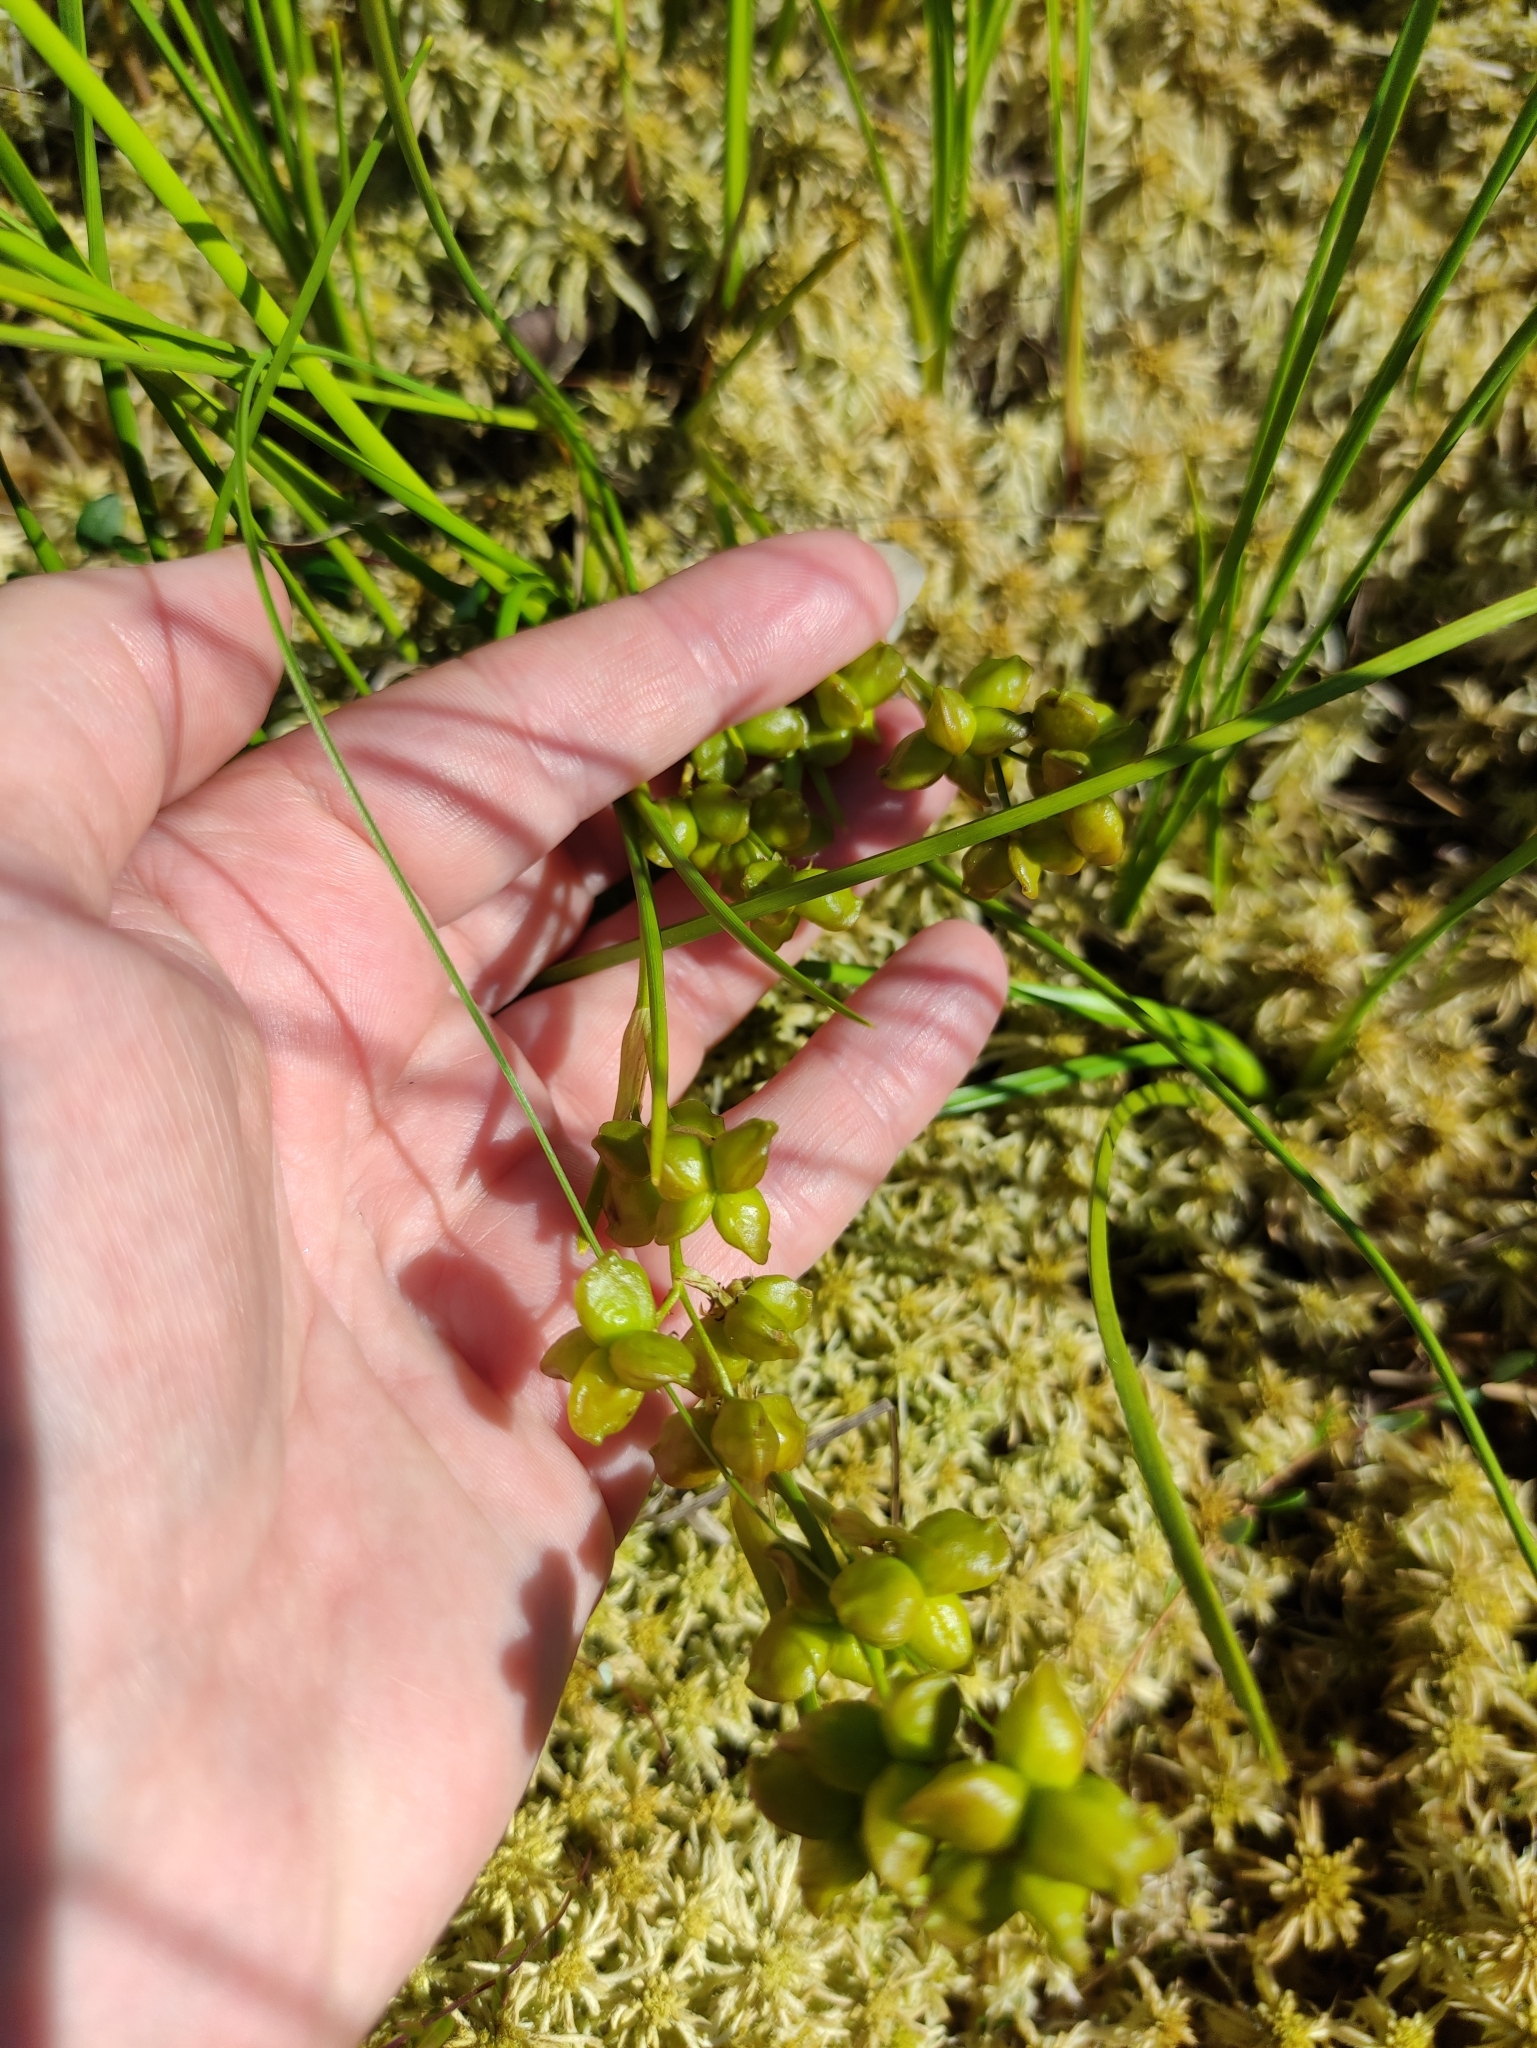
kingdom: Plantae
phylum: Tracheophyta
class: Liliopsida
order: Alismatales
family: Scheuchzeriaceae
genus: Scheuchzeria
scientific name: Scheuchzeria palustris
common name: Rannoch-rush
